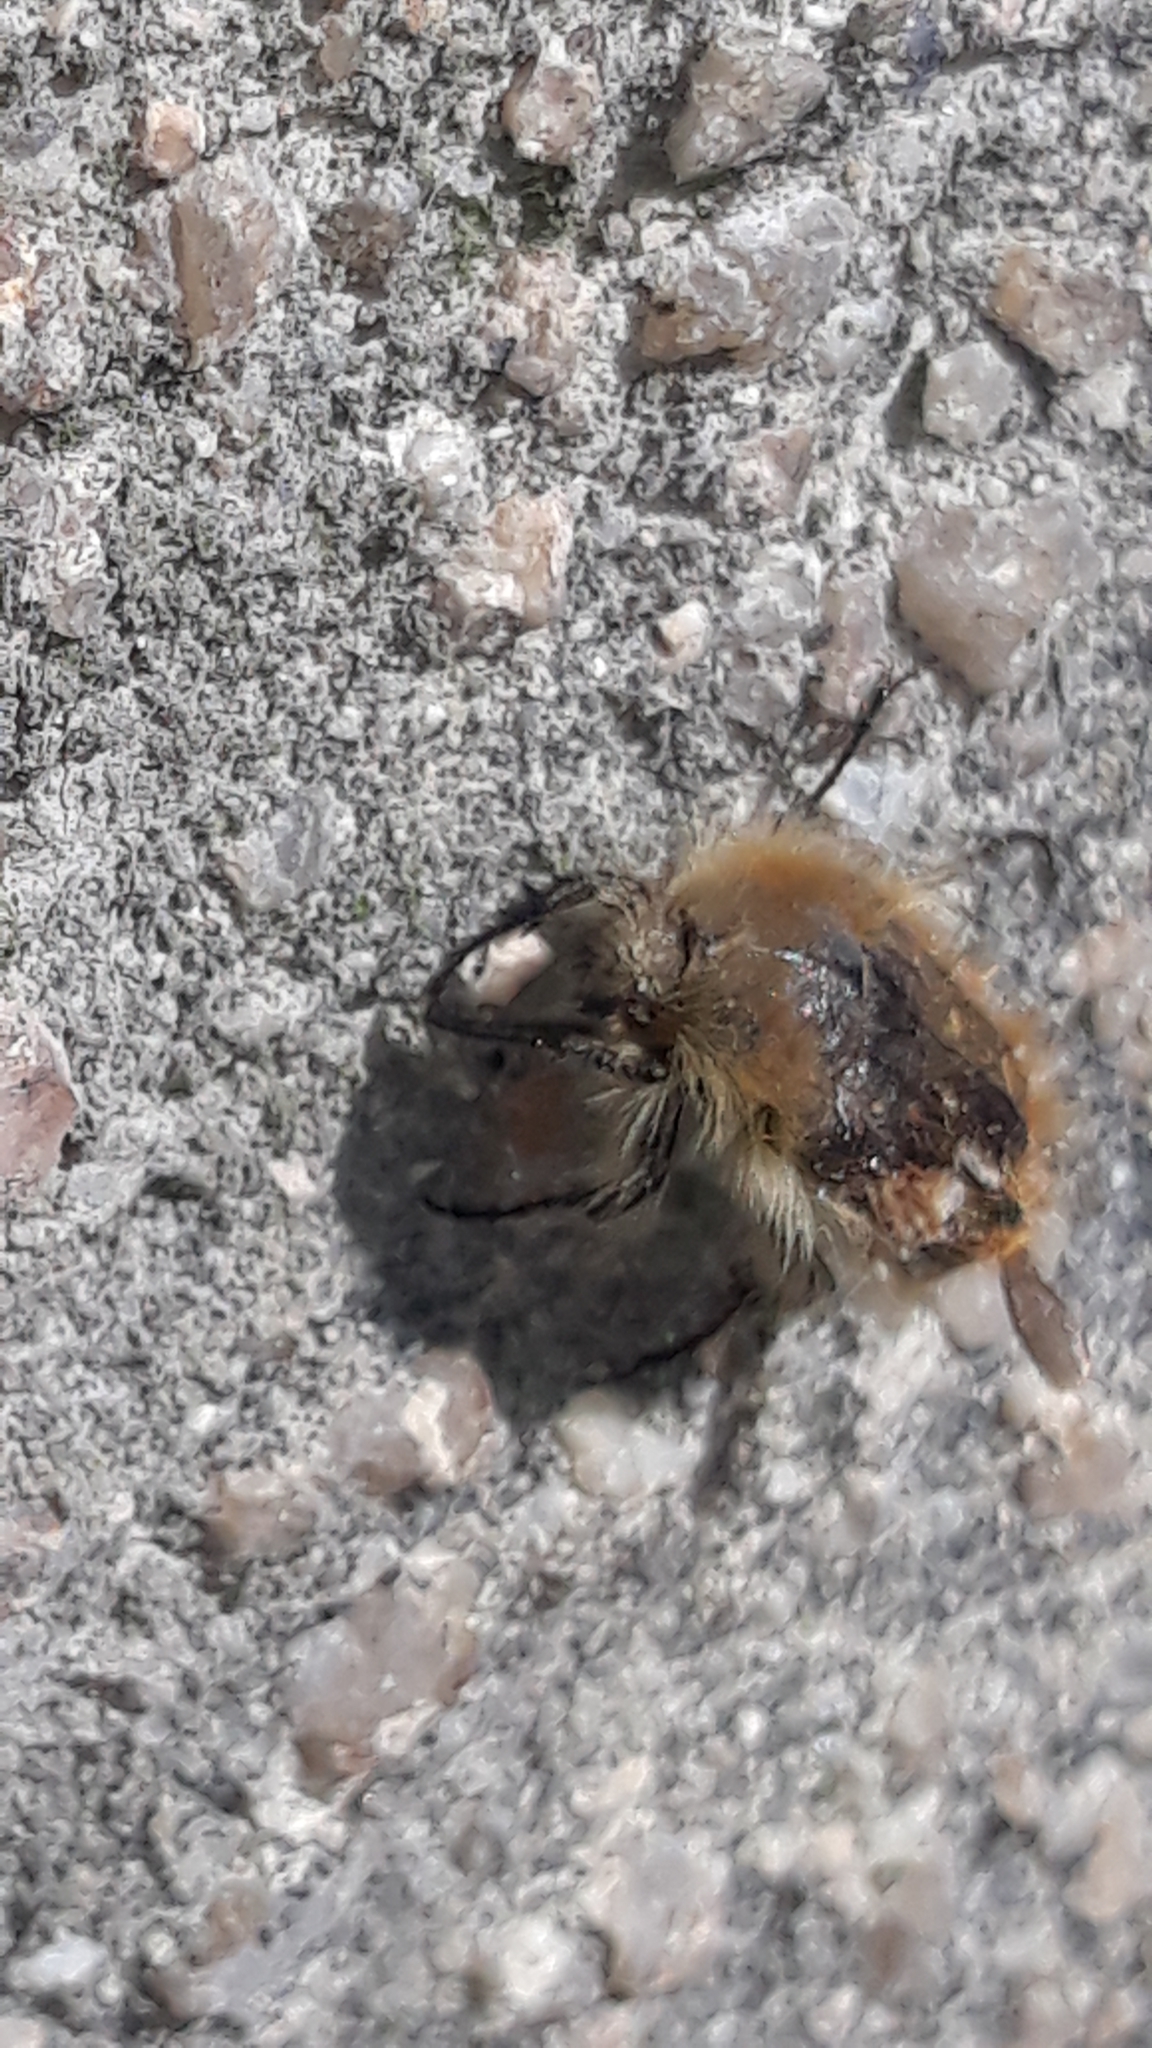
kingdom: Animalia
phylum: Arthropoda
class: Insecta
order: Coleoptera
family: Scarabaeidae
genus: Tropinota
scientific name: Tropinota squalida
